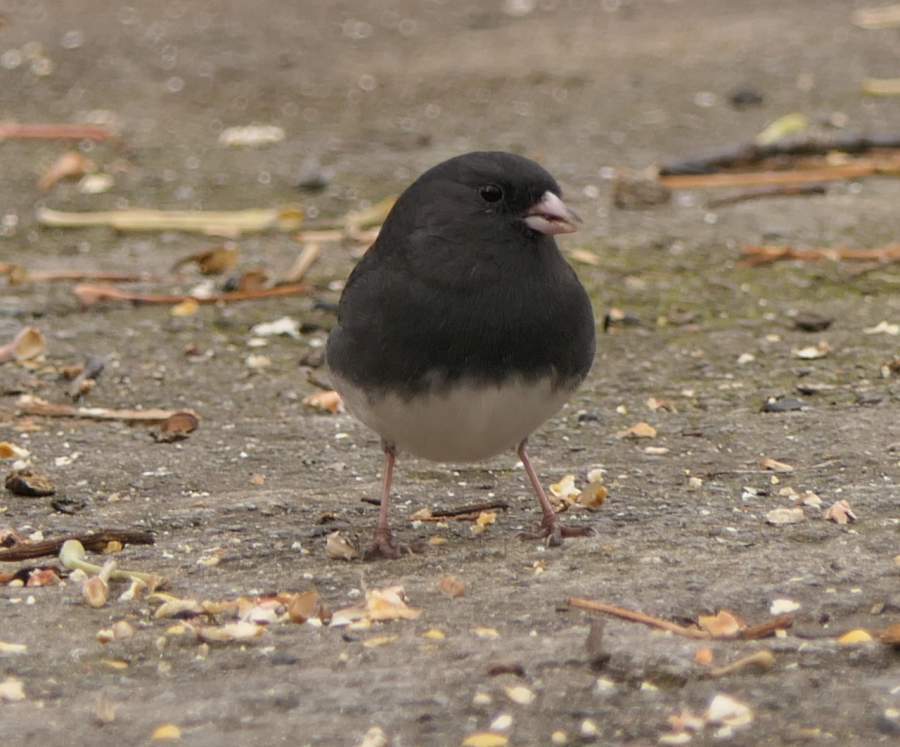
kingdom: Animalia
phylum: Chordata
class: Aves
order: Passeriformes
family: Passerellidae
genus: Junco
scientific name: Junco hyemalis
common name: Dark-eyed junco
